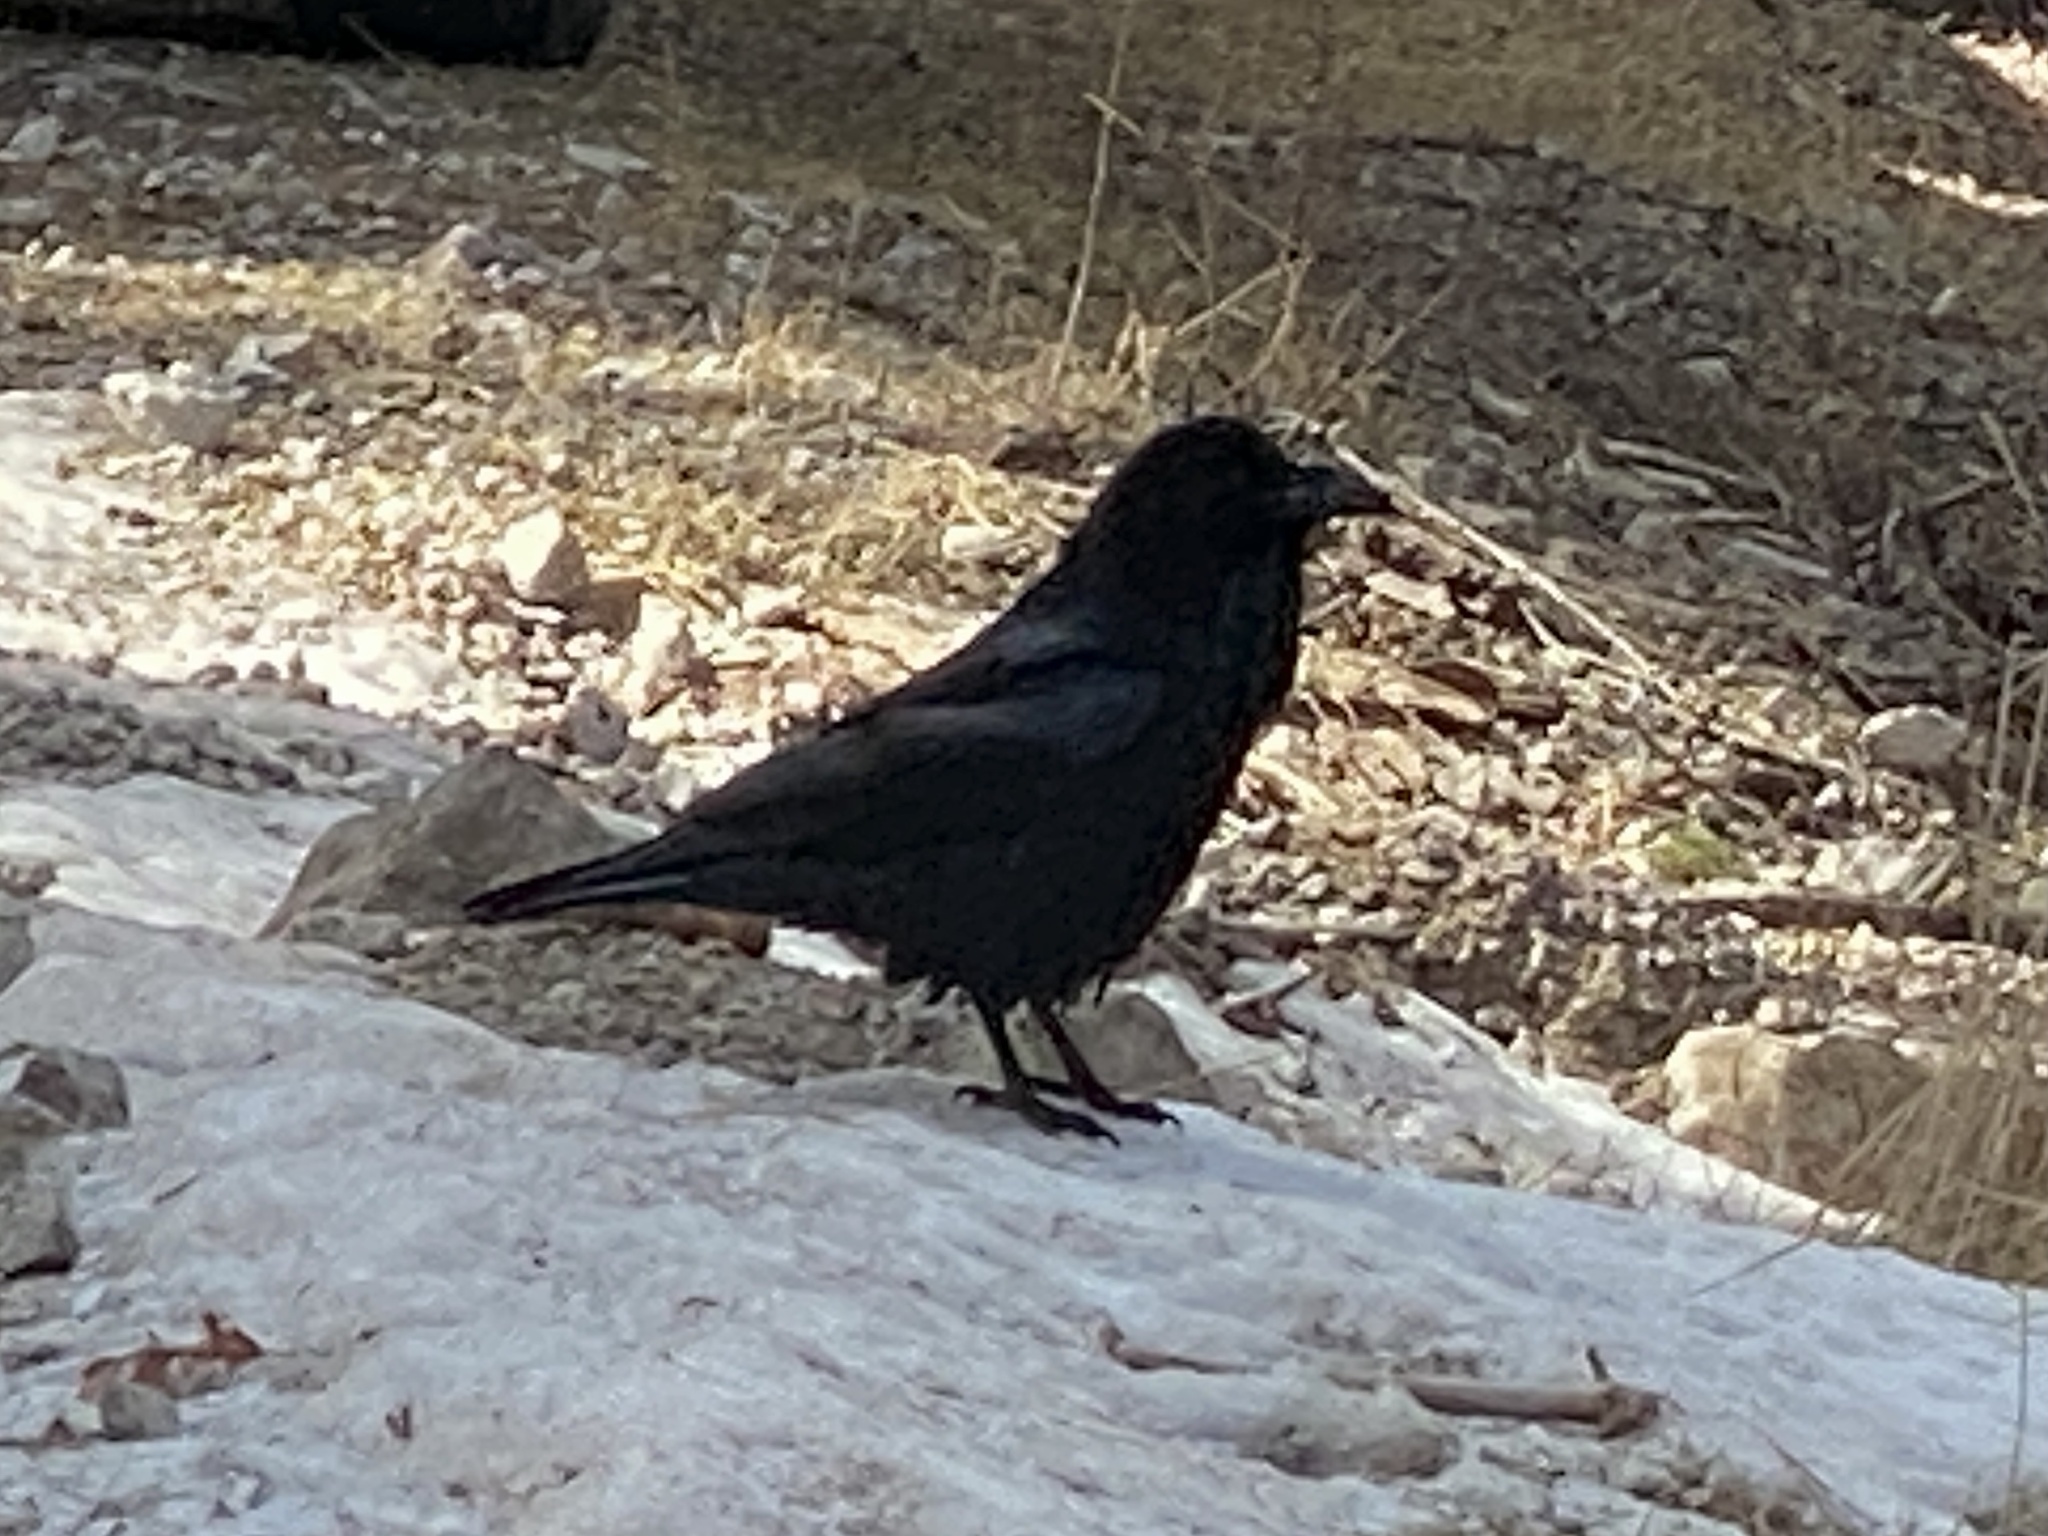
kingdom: Animalia
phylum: Chordata
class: Aves
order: Passeriformes
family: Corvidae
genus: Corvus
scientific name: Corvus corax
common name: Common raven
